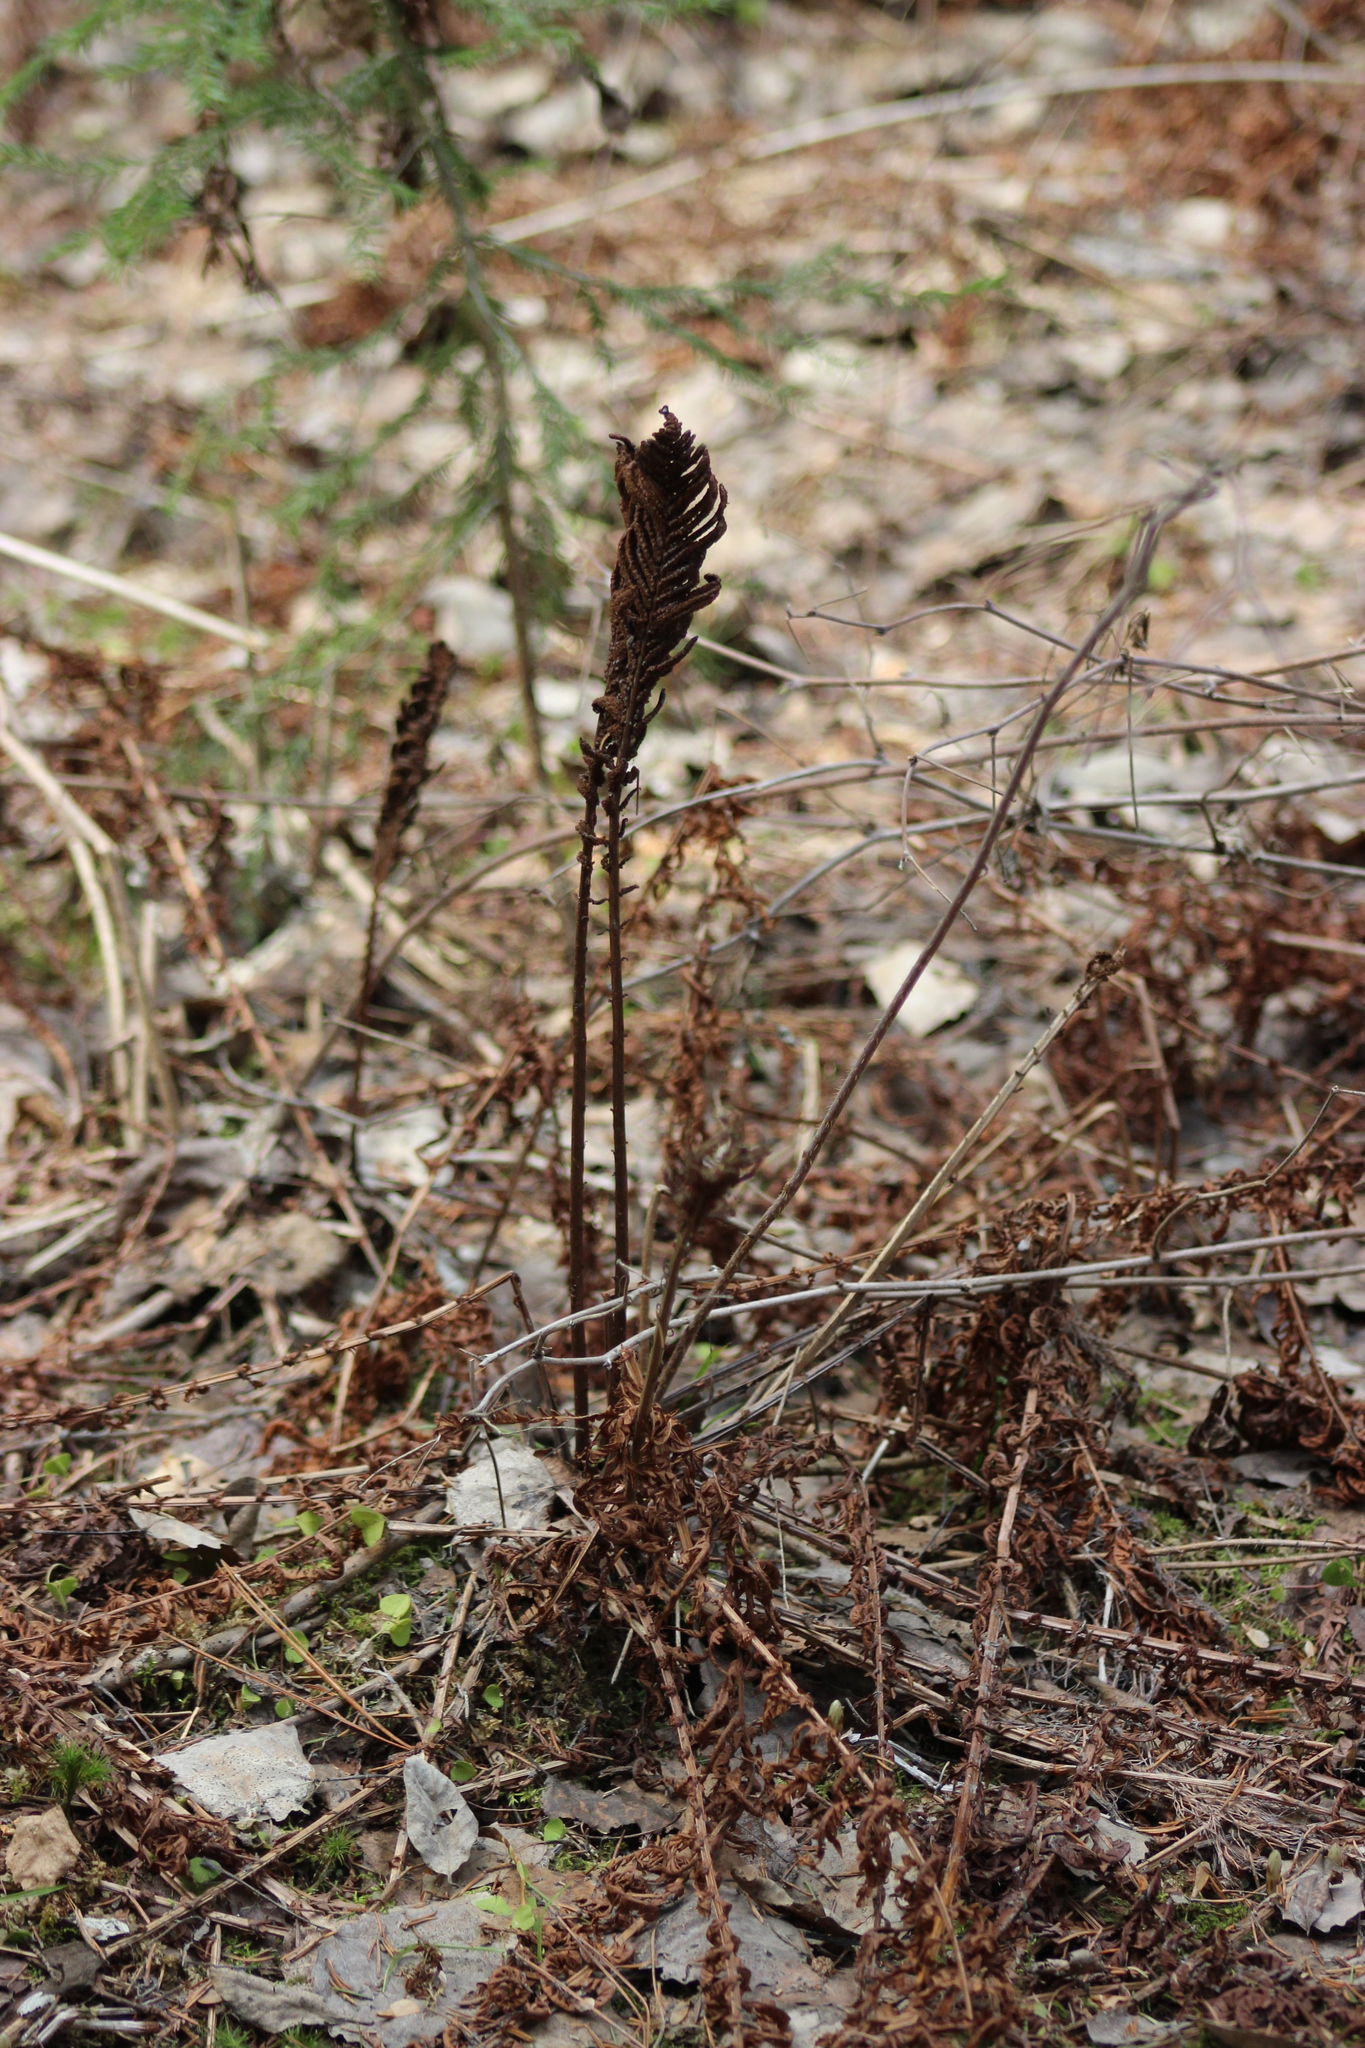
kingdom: Plantae
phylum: Tracheophyta
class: Polypodiopsida
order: Polypodiales
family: Onocleaceae
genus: Matteuccia
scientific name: Matteuccia struthiopteris
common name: Ostrich fern
